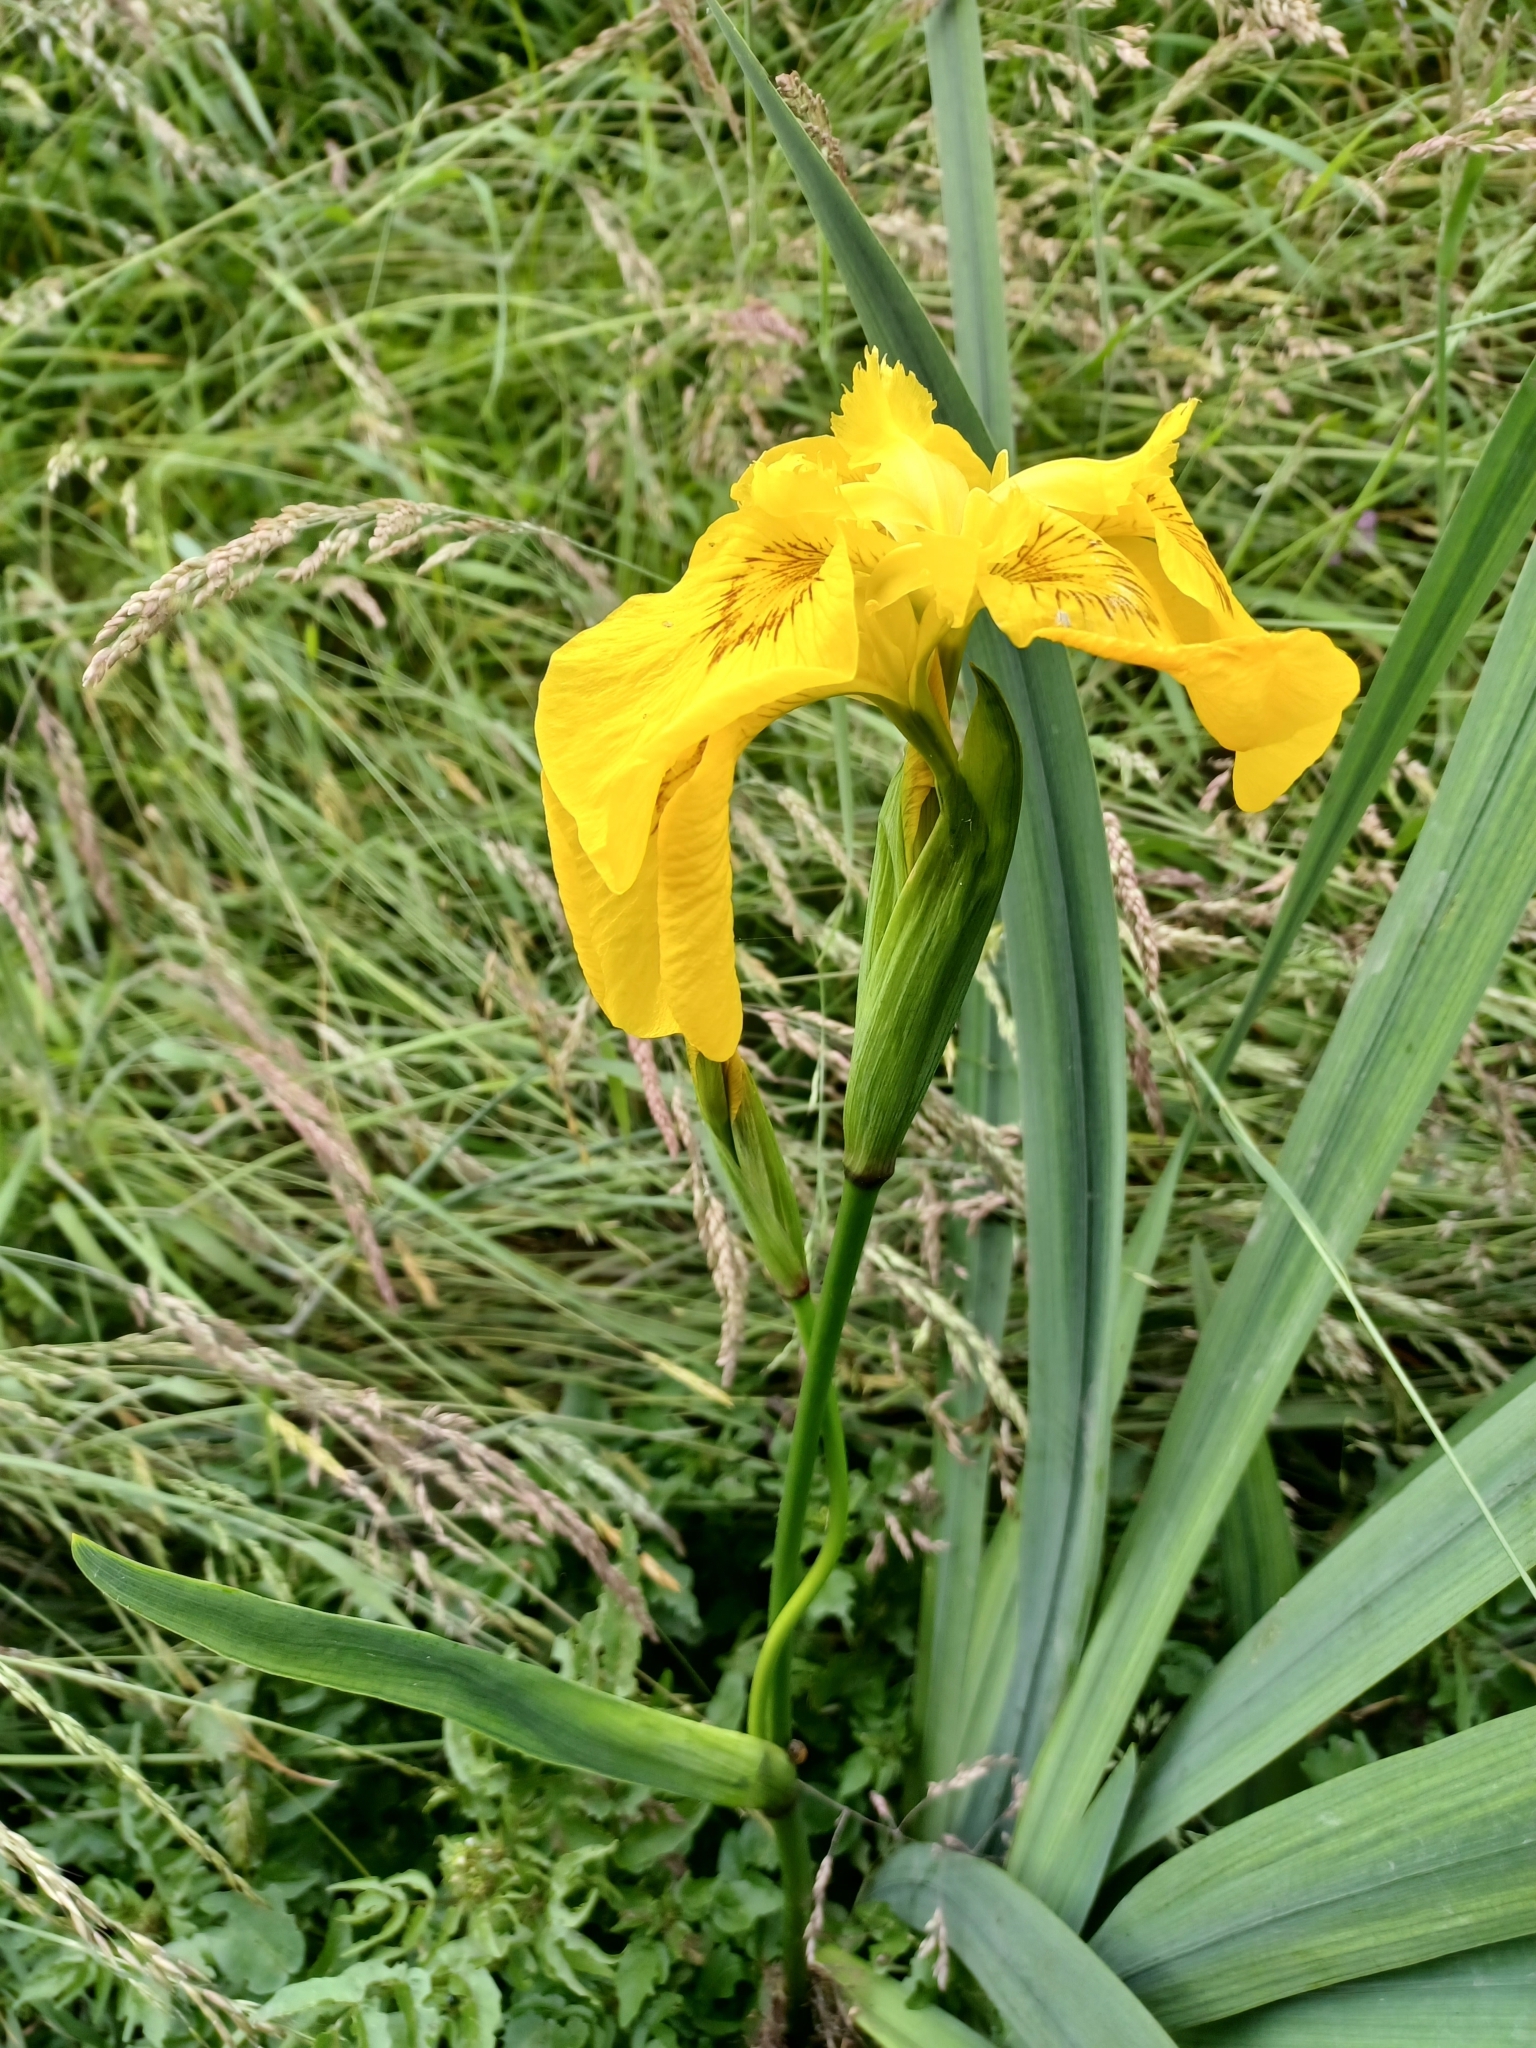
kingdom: Plantae
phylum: Tracheophyta
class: Liliopsida
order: Asparagales
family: Iridaceae
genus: Iris
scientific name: Iris pseudacorus
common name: Yellow flag
